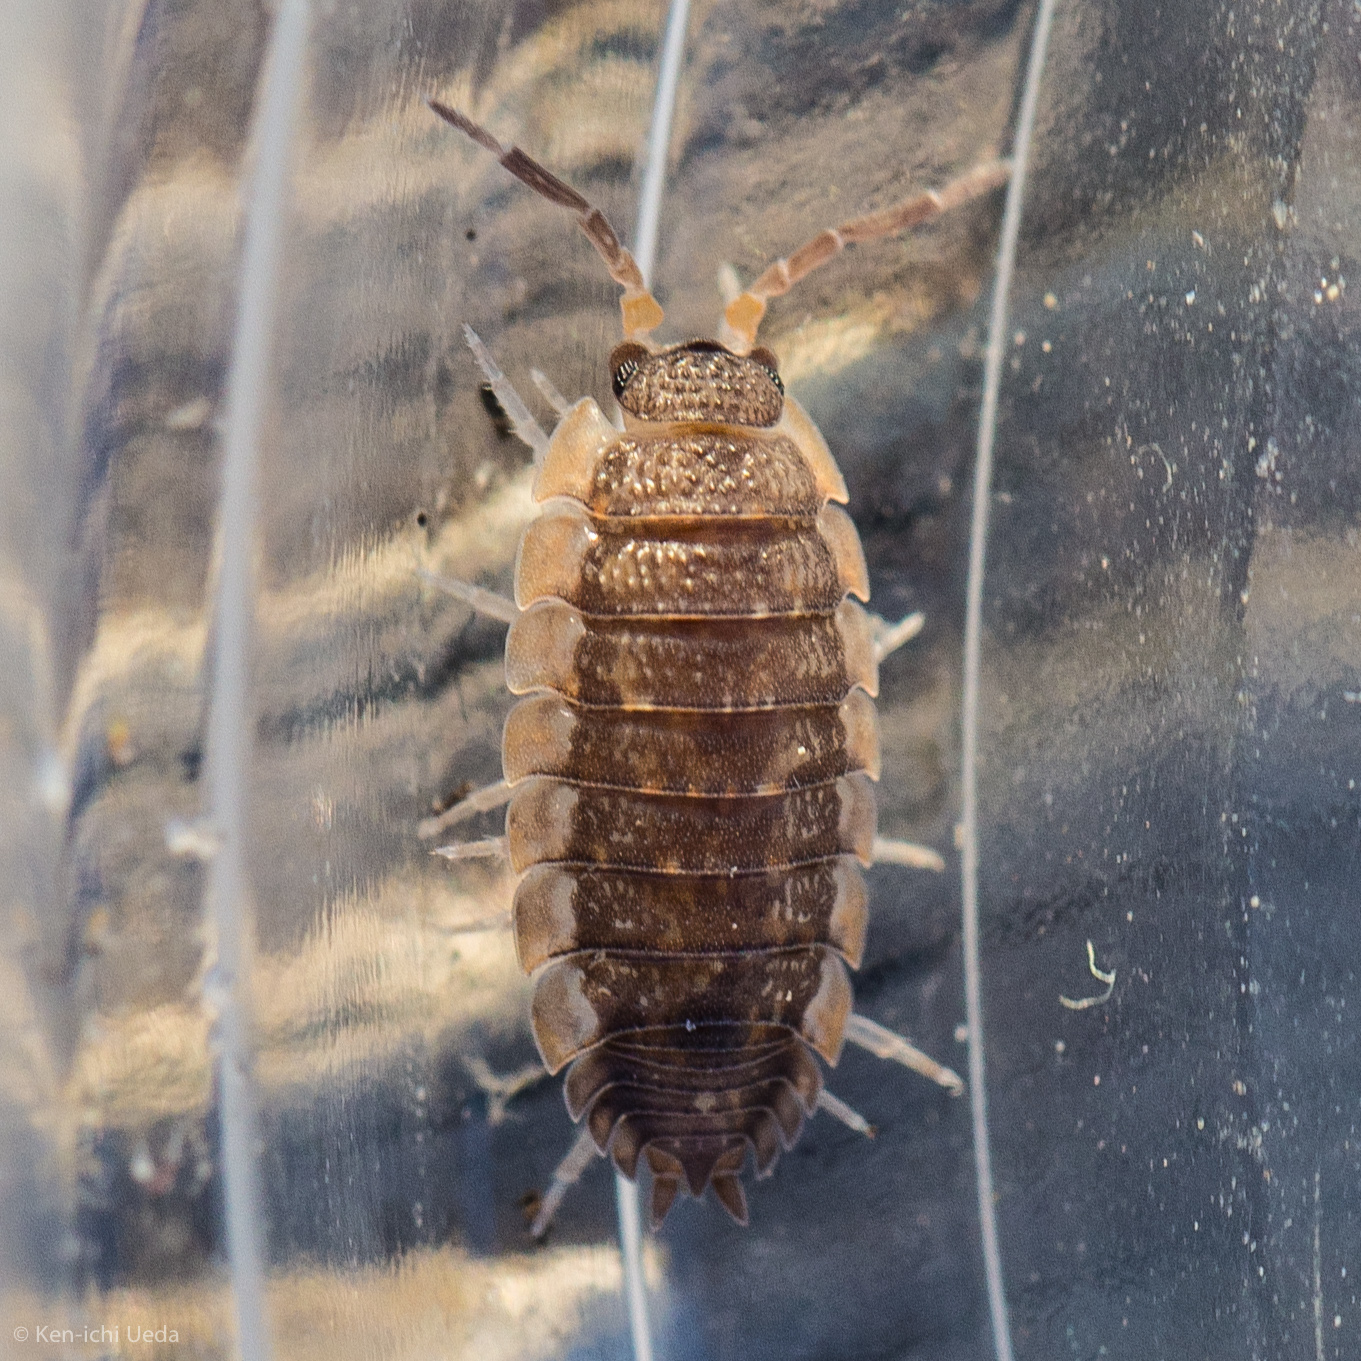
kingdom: Animalia
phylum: Arthropoda
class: Malacostraca
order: Isopoda
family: Porcellionidae
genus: Porcellio
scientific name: Porcellio scaber
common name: Common rough woodlouse
